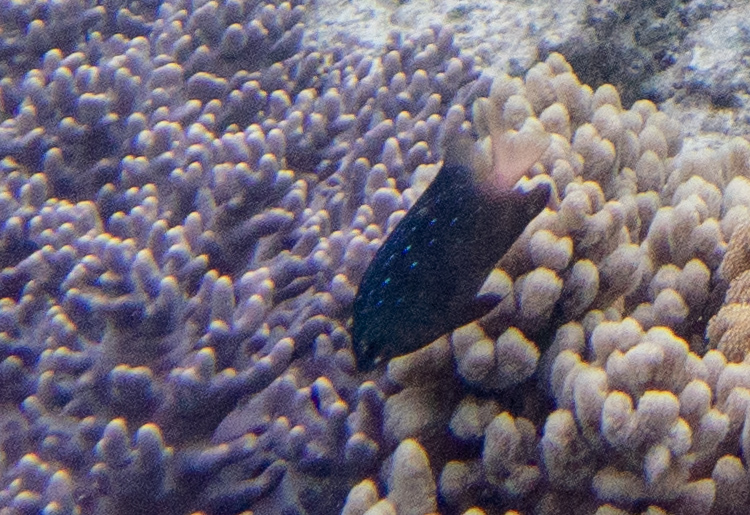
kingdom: Animalia
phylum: Chordata
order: Perciformes
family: Pomacentridae
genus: Plectroglyphidodon
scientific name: Plectroglyphidodon lacrymatus
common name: Jewel damsel
